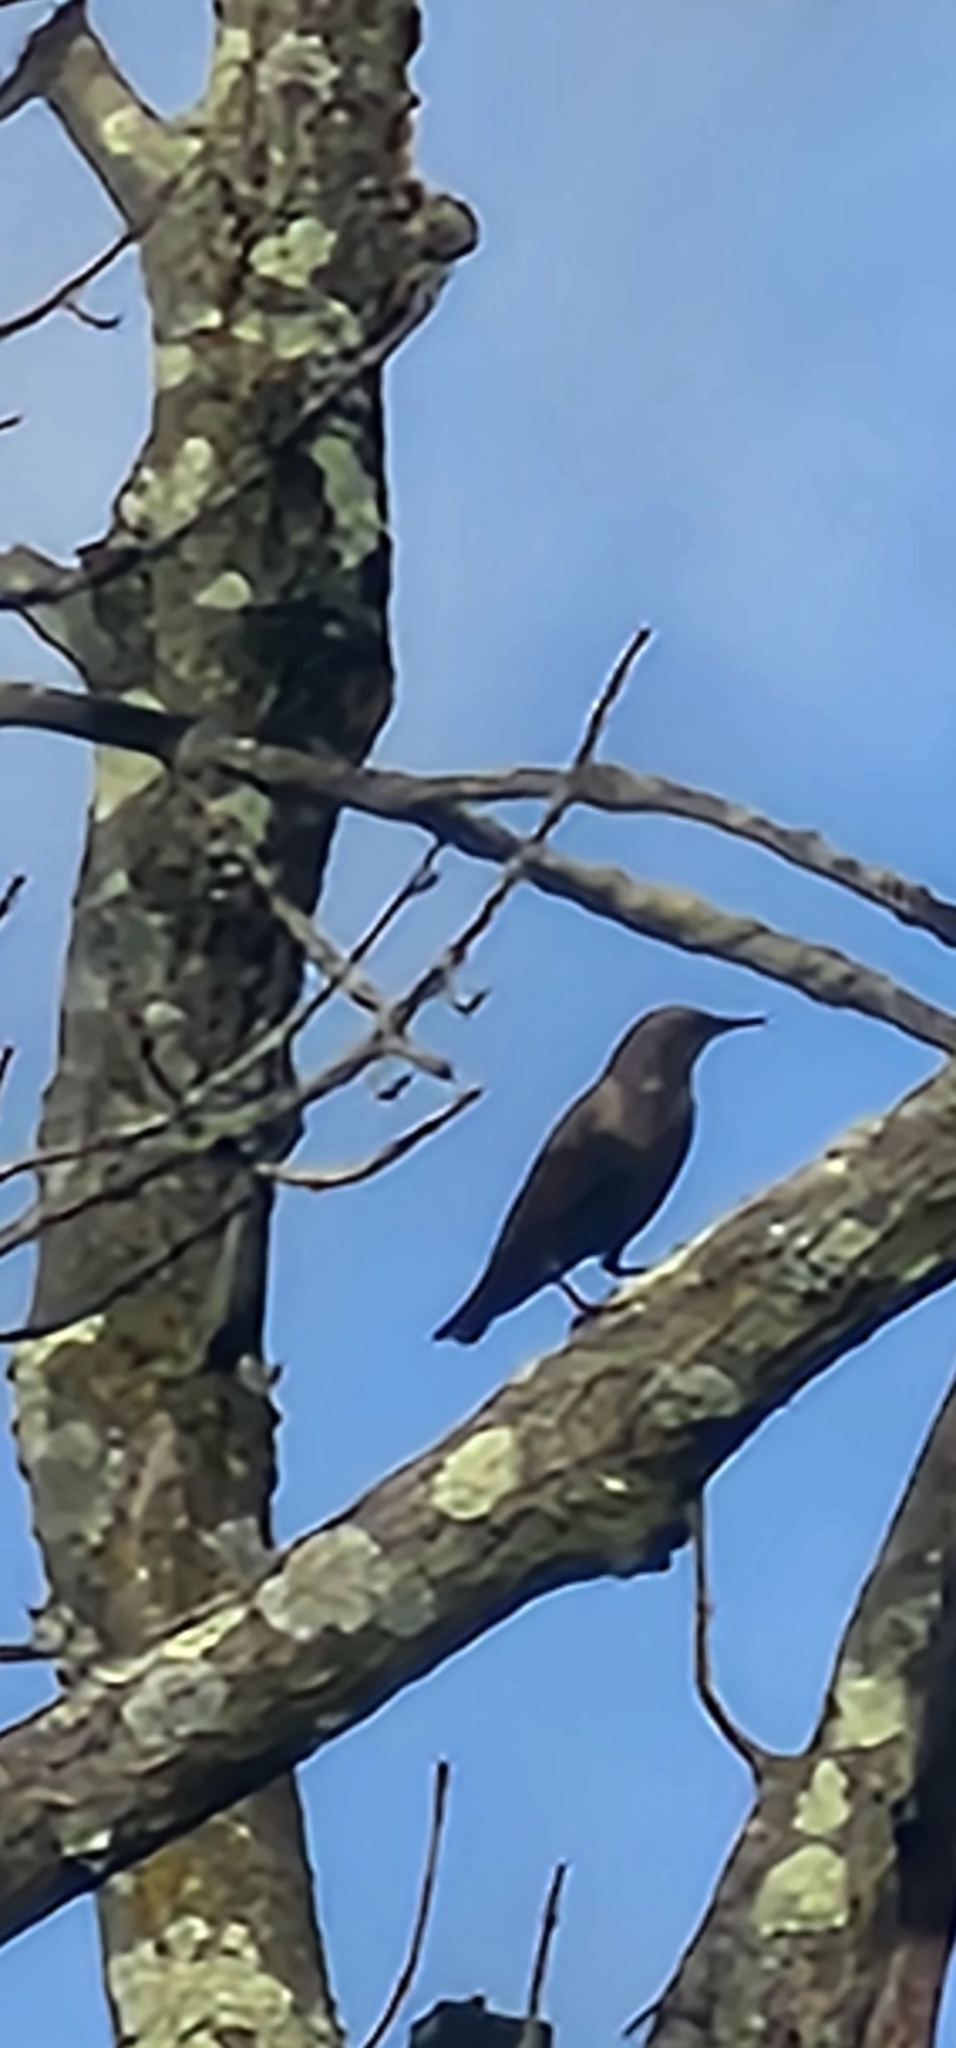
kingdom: Animalia
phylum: Chordata
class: Aves
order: Passeriformes
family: Sturnidae
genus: Sturnus
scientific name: Sturnus vulgaris
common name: Common starling
